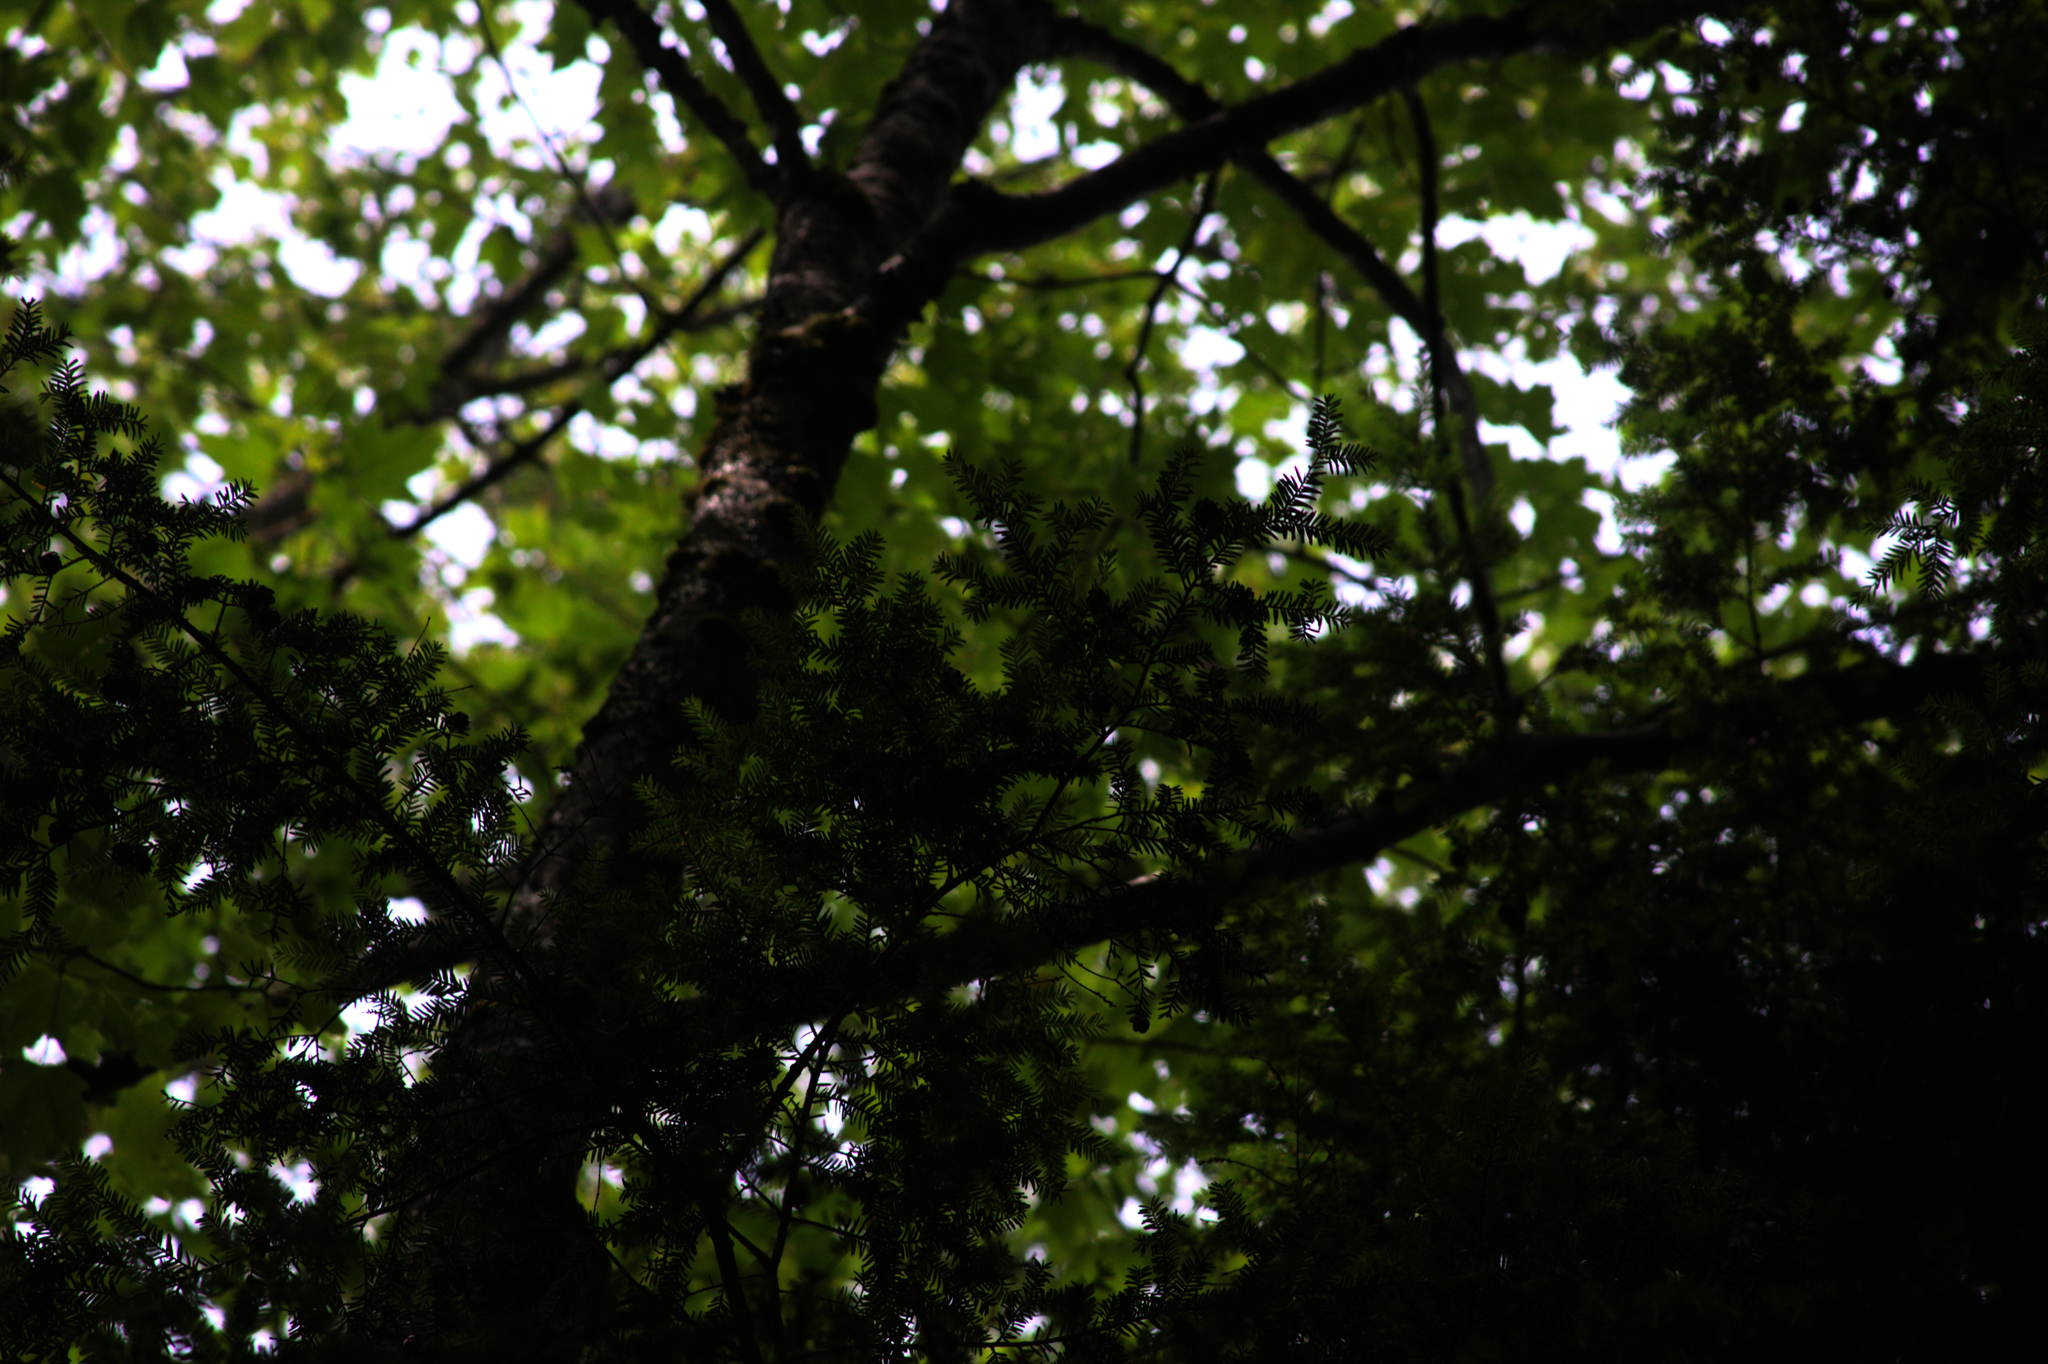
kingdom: Plantae
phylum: Tracheophyta
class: Pinopsida
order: Pinales
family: Pinaceae
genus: Tsuga
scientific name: Tsuga canadensis
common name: Eastern hemlock
